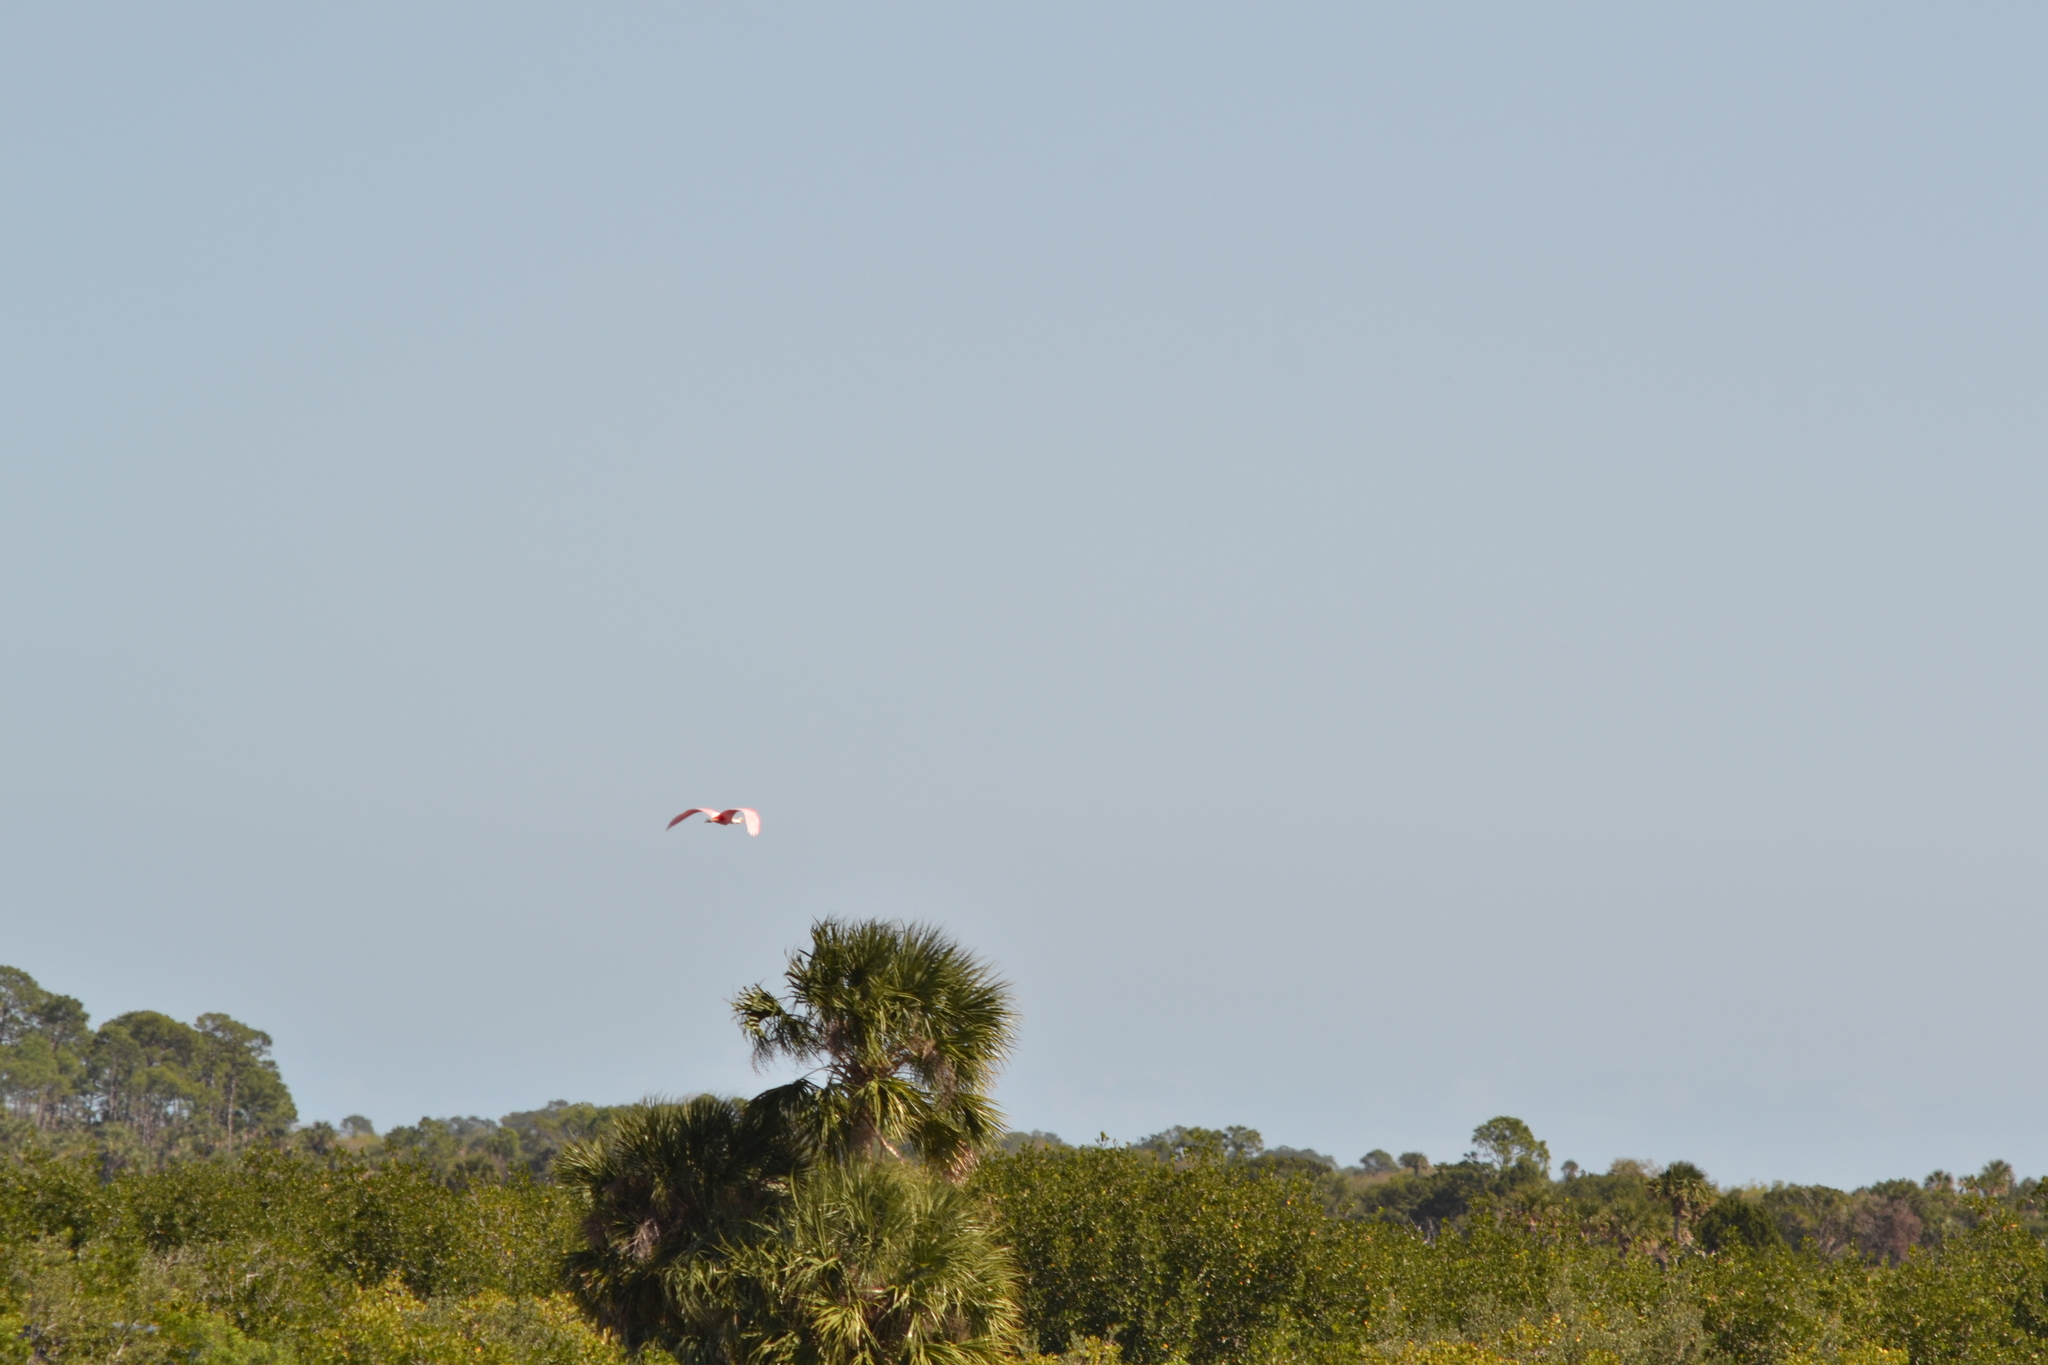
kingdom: Animalia
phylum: Chordata
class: Aves
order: Pelecaniformes
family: Threskiornithidae
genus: Platalea
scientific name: Platalea ajaja
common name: Roseate spoonbill
